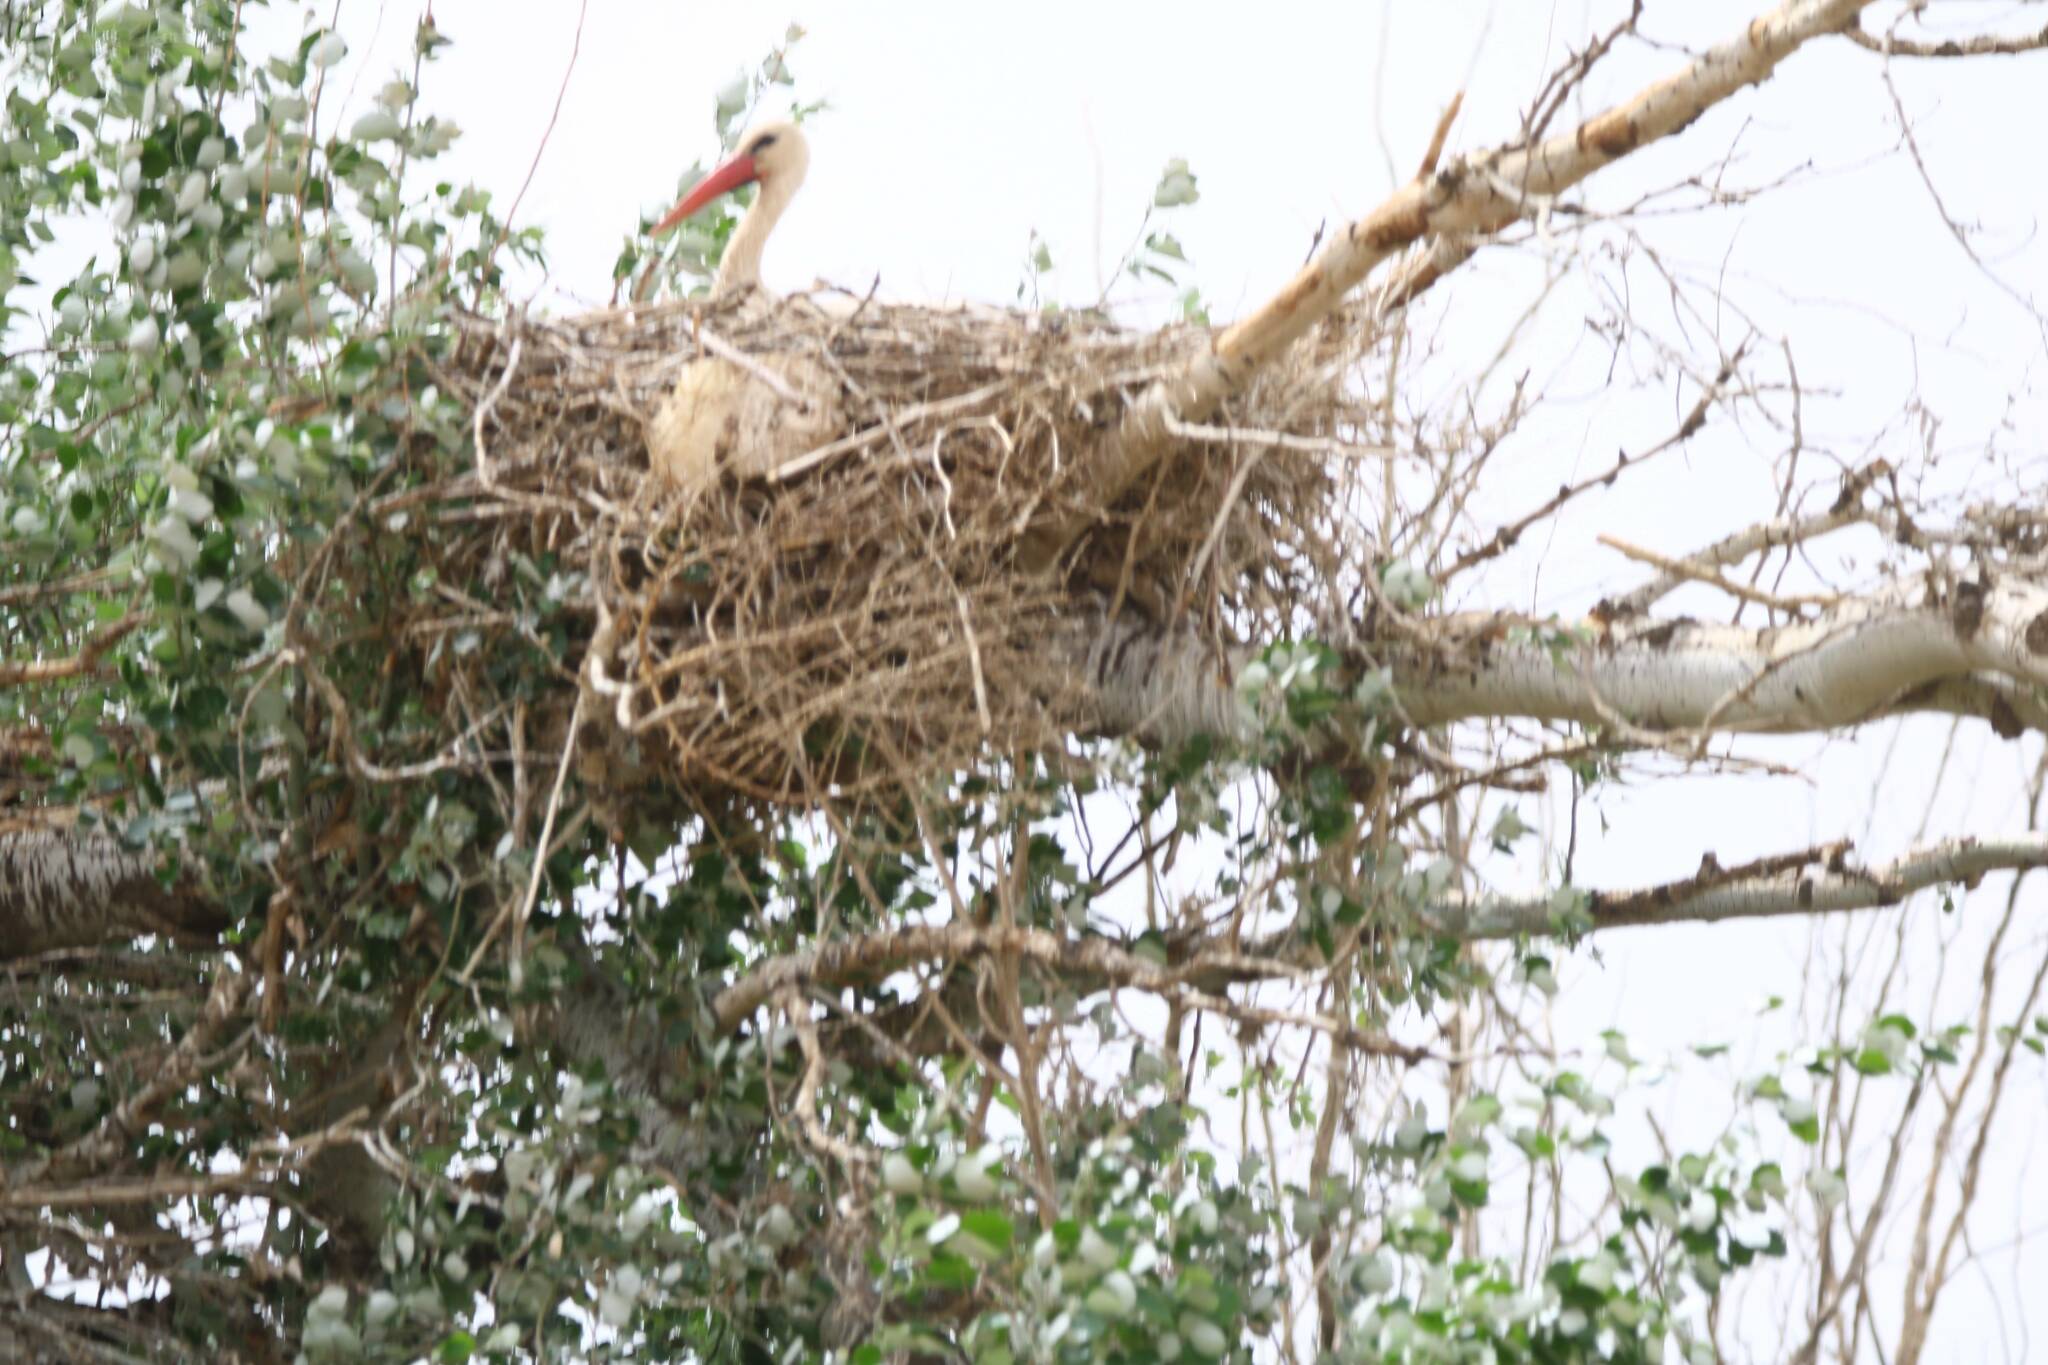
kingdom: Animalia
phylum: Chordata
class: Aves
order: Ciconiiformes
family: Ciconiidae
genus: Ciconia
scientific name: Ciconia ciconia
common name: White stork
